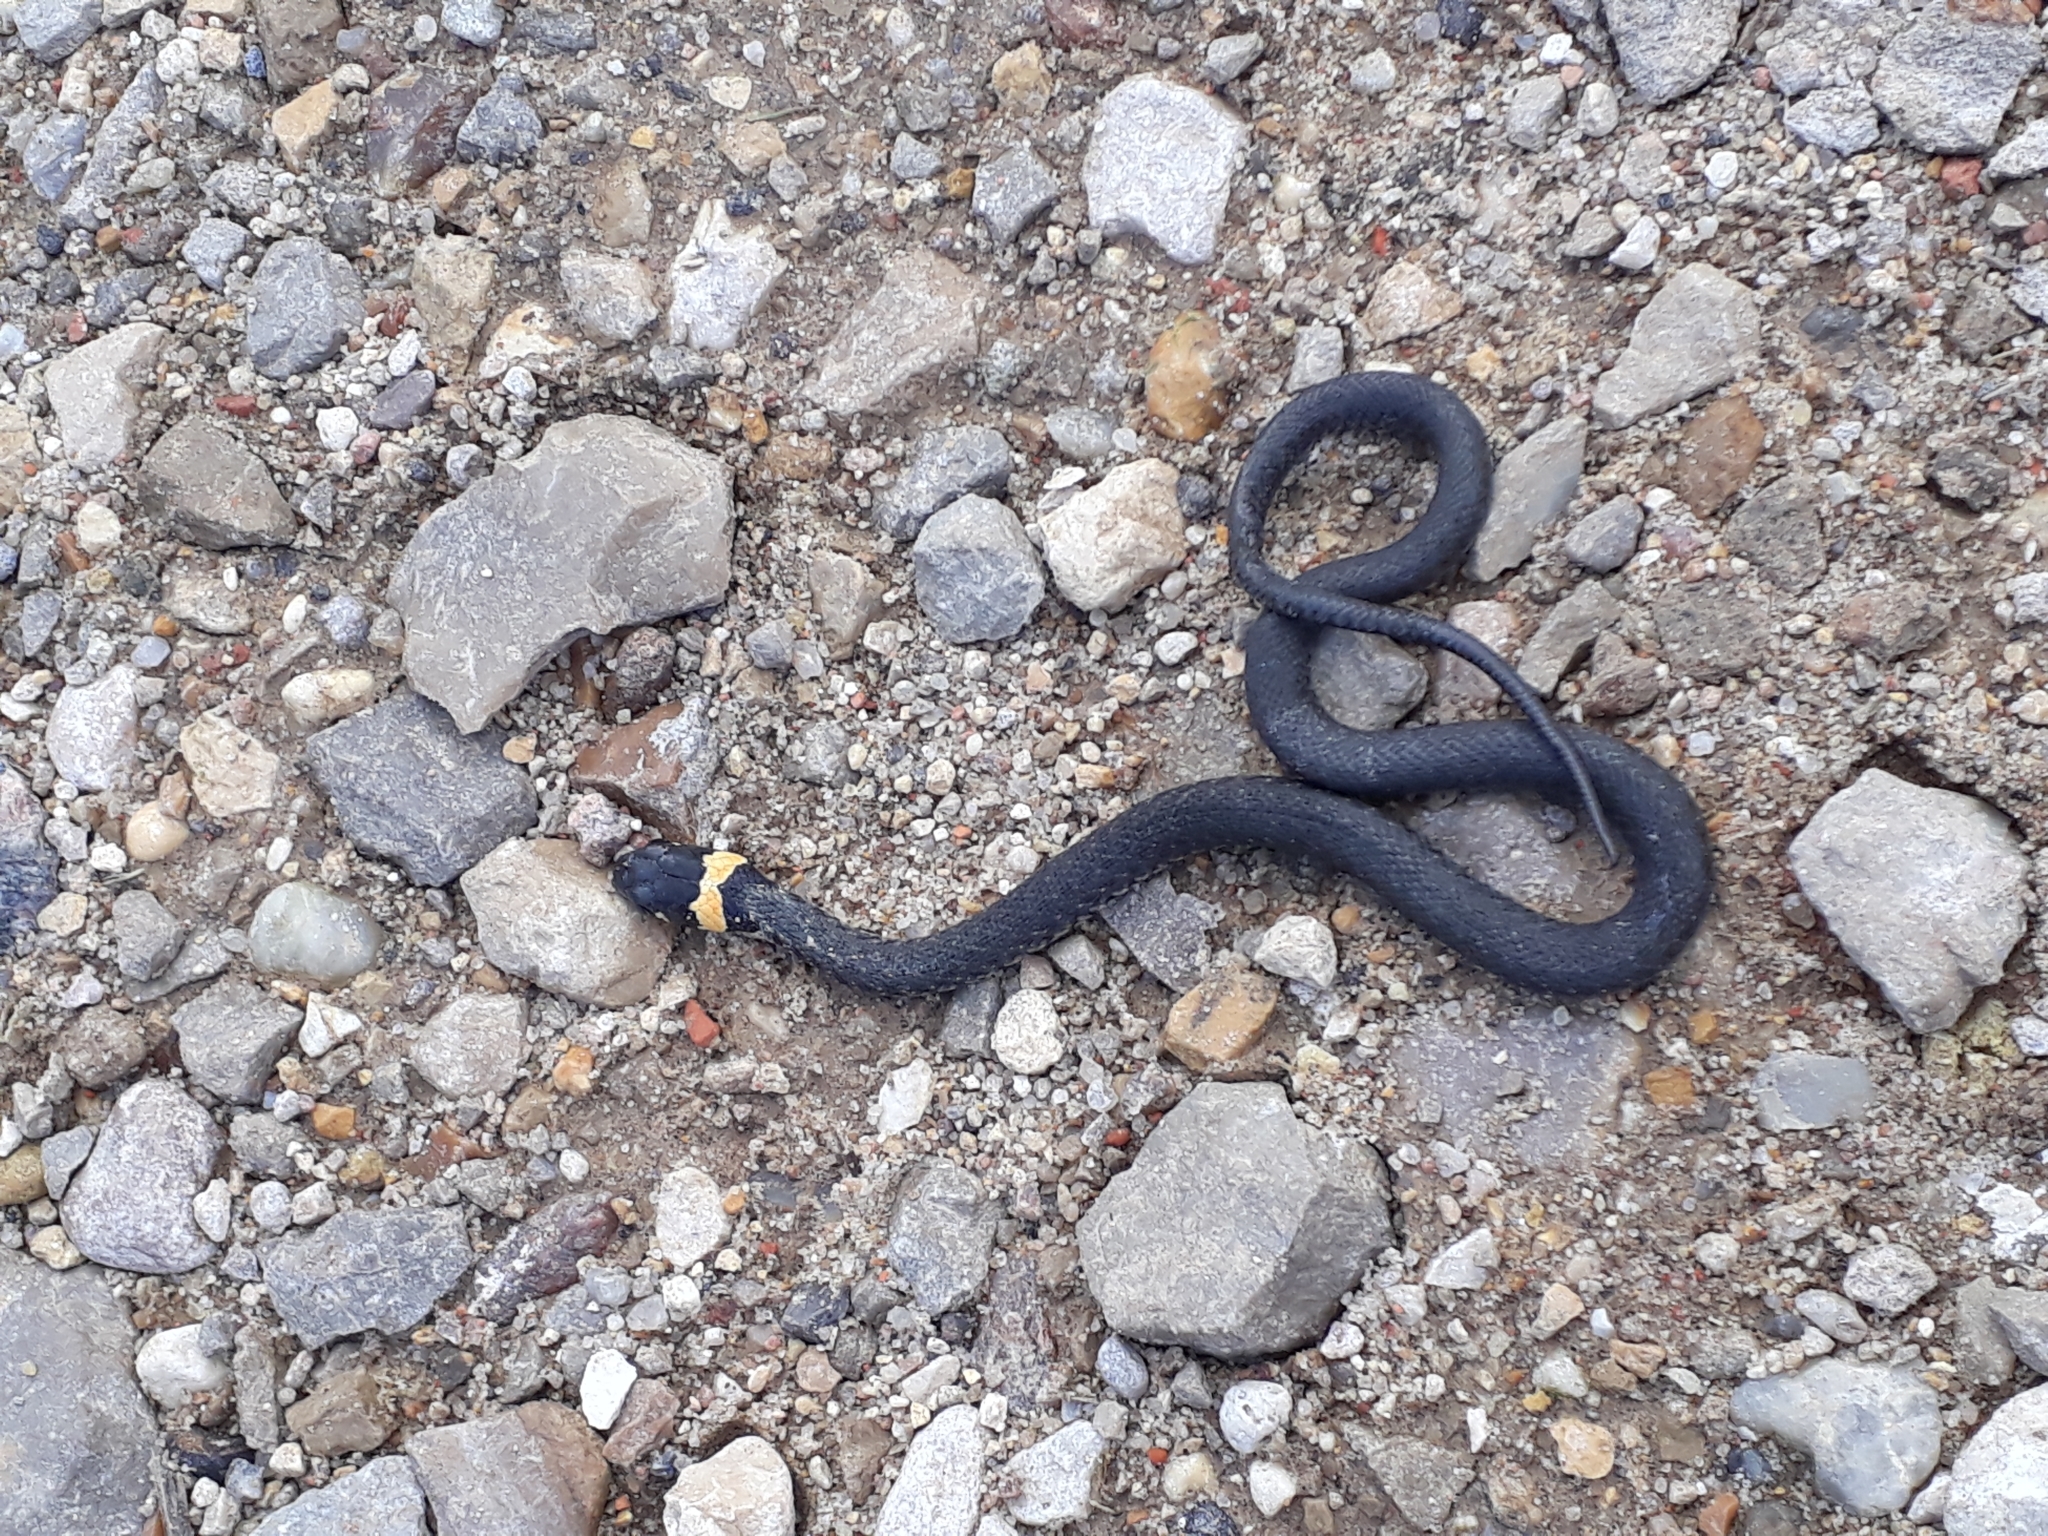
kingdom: Animalia
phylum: Chordata
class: Squamata
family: Colubridae
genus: Natrix
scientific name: Natrix natrix
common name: Grass snake
